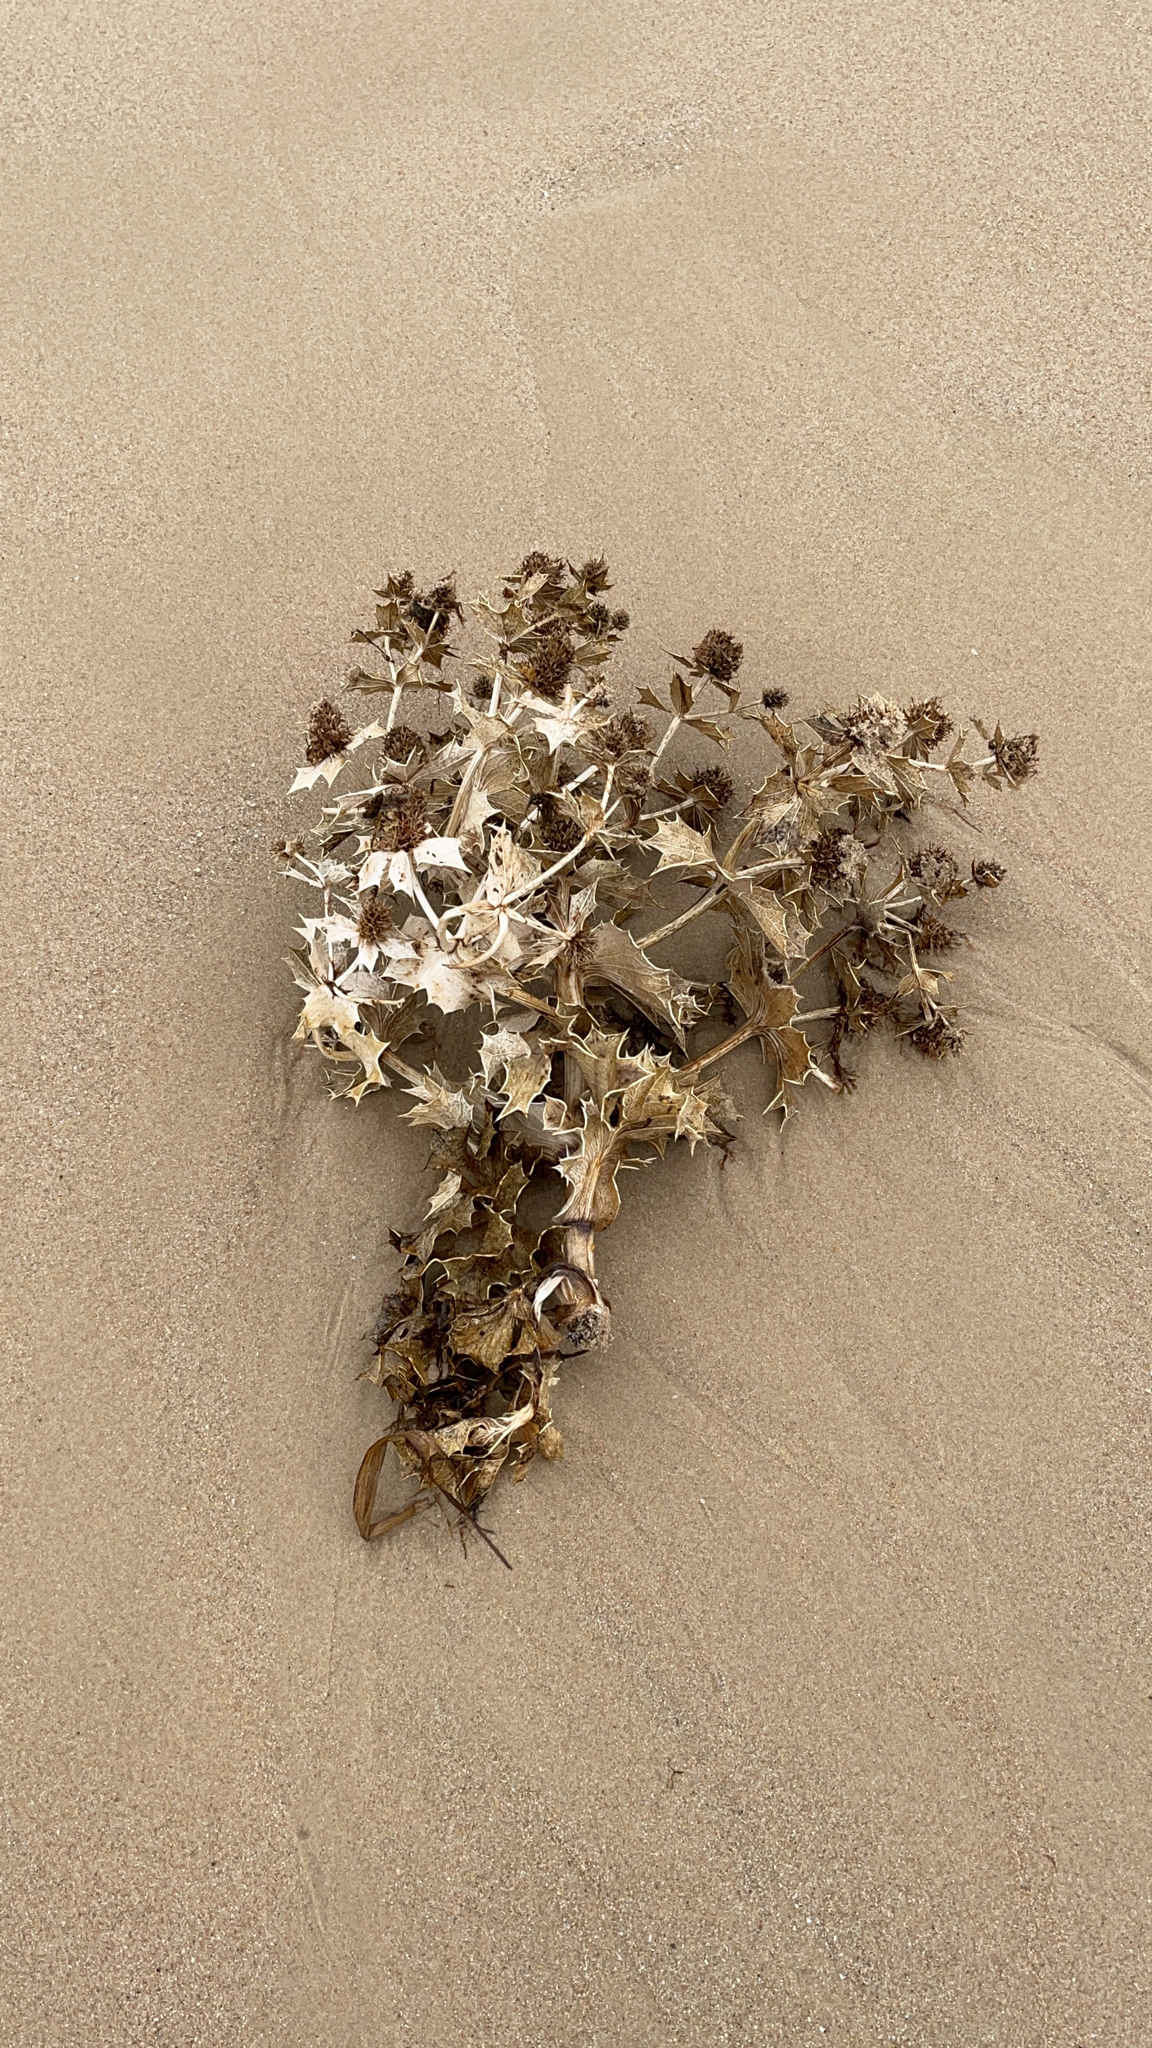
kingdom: Plantae
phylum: Tracheophyta
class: Magnoliopsida
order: Apiales
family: Apiaceae
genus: Eryngium
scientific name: Eryngium maritimum
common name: Sea-holly
